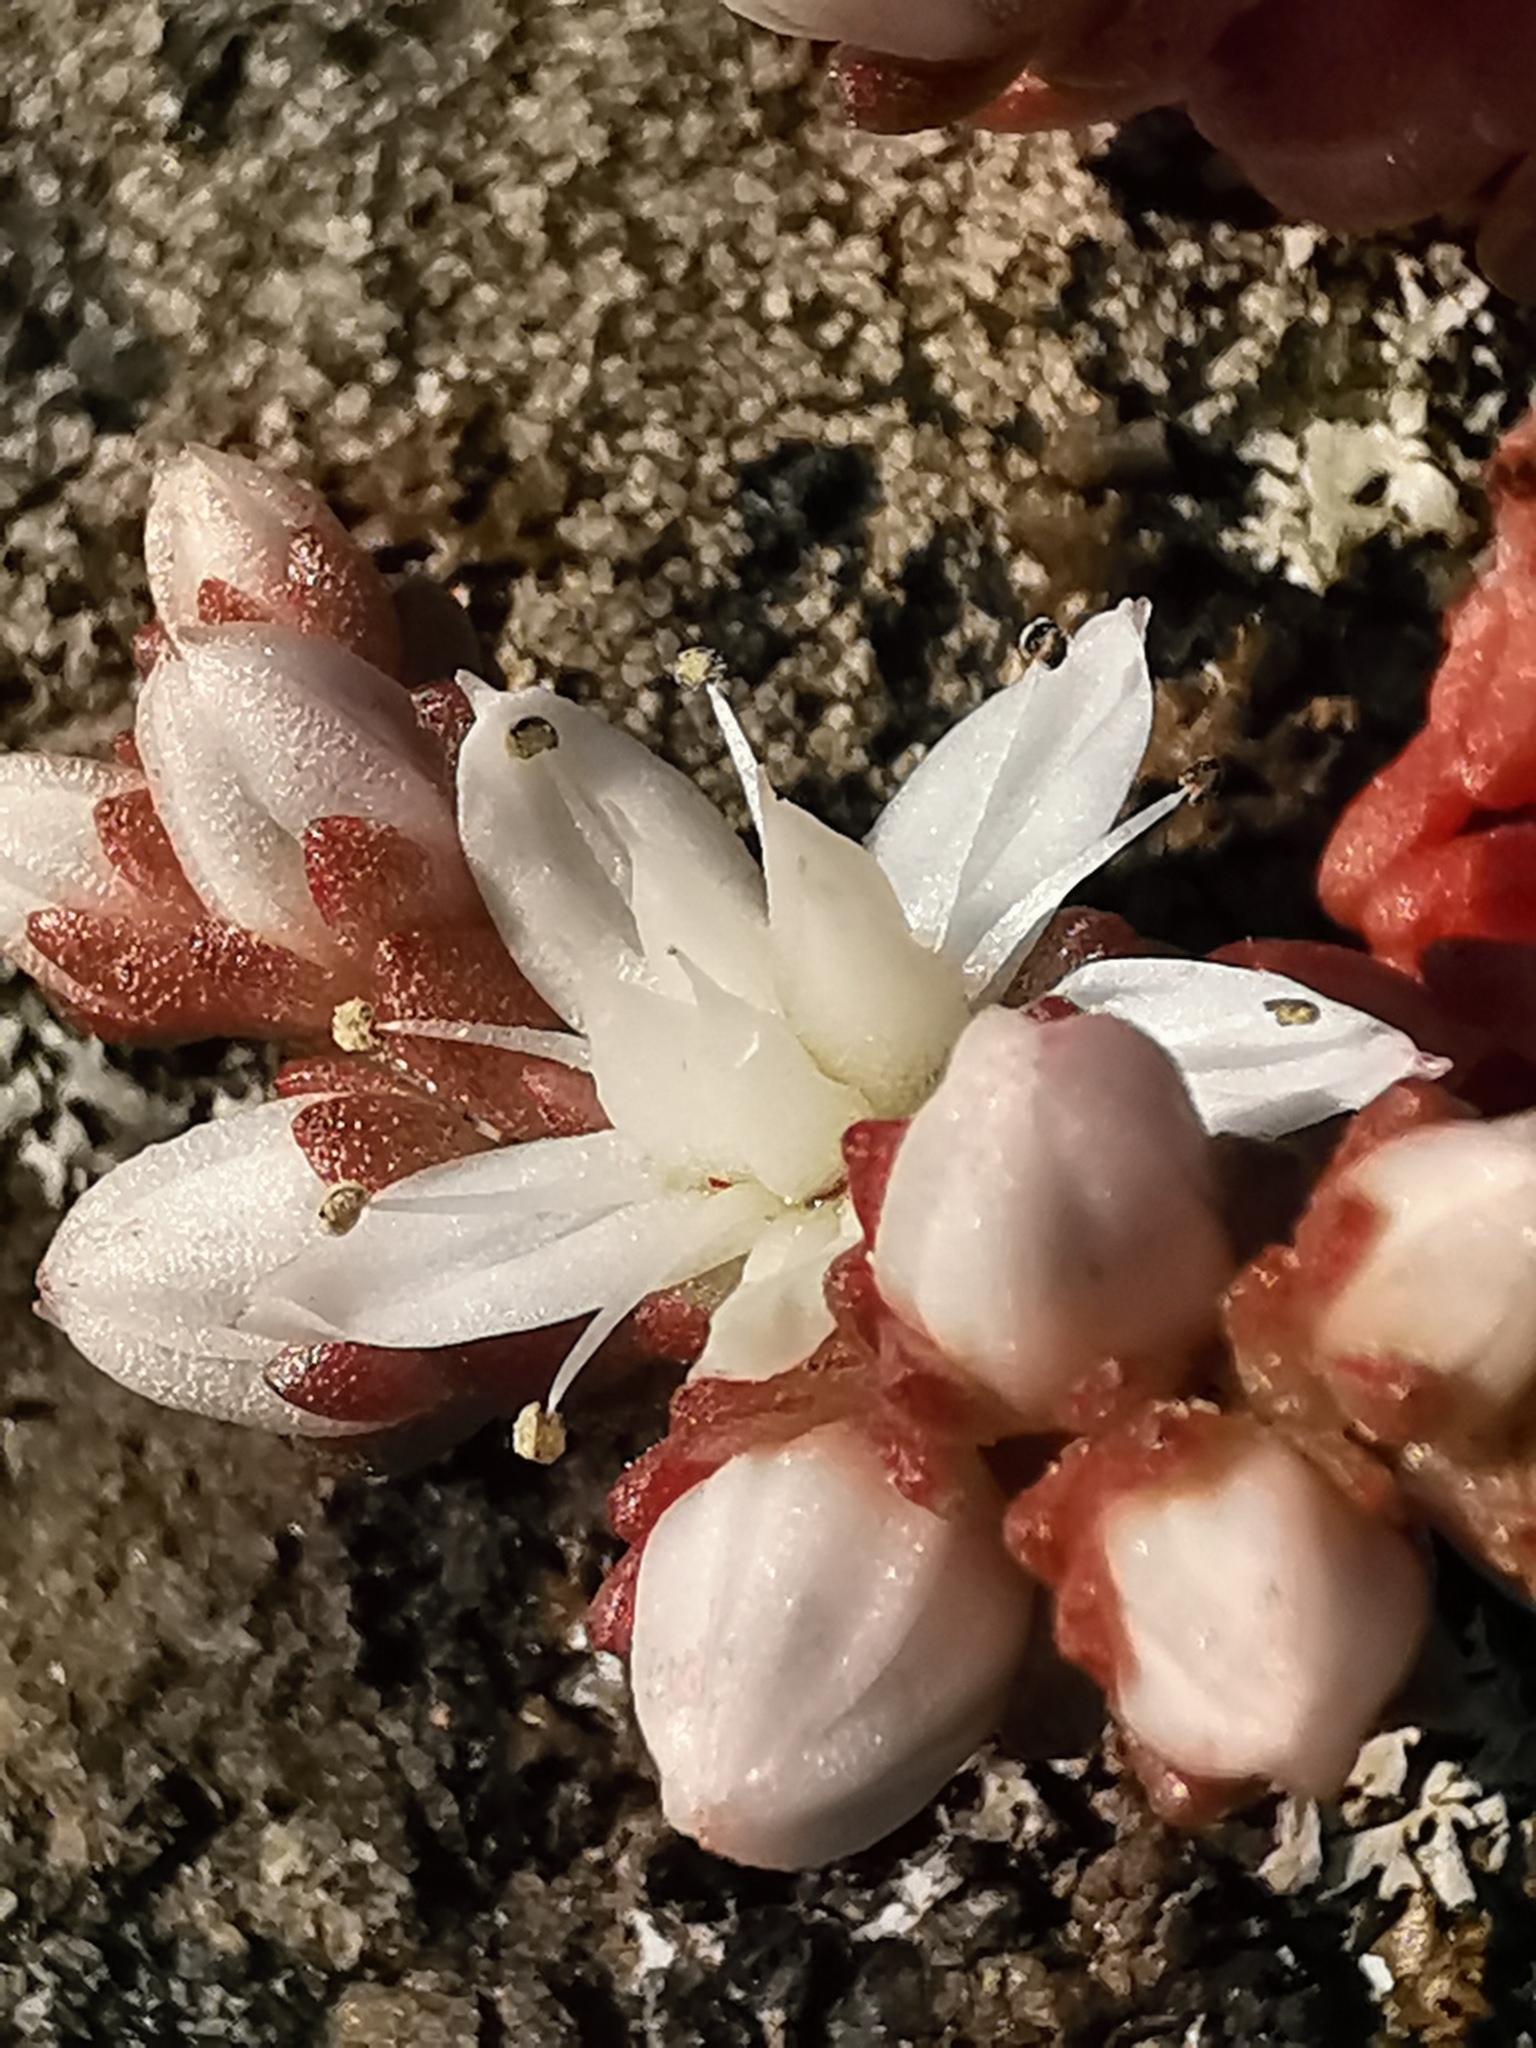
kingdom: Plantae
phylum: Tracheophyta
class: Magnoliopsida
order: Saxifragales
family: Crassulaceae
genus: Sedum
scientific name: Sedum anglicum
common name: English stonecrop
